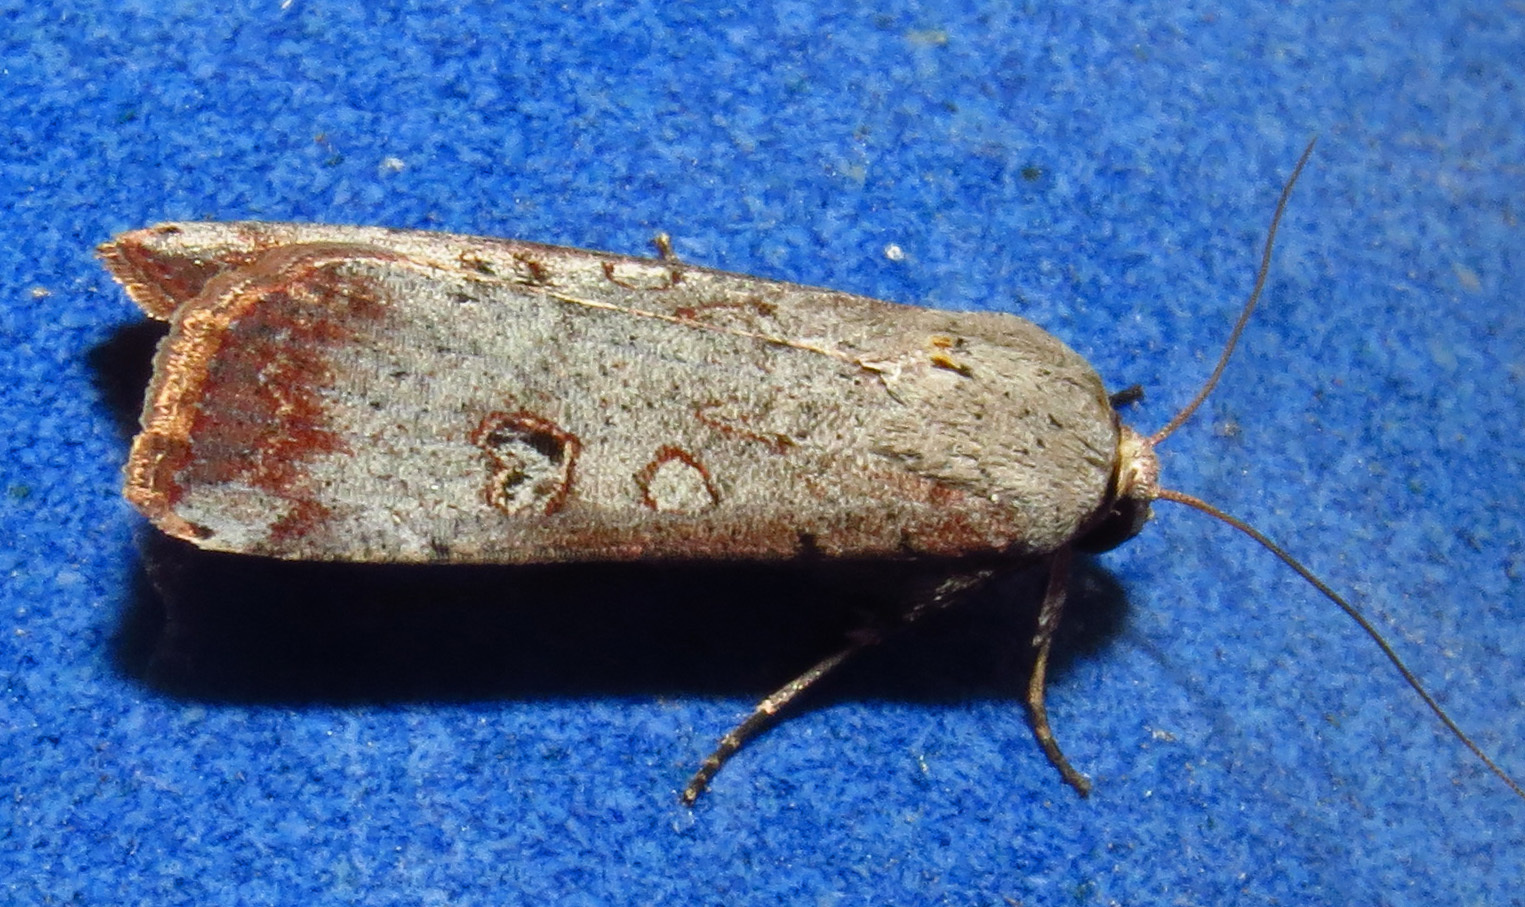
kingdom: Animalia
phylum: Arthropoda
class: Insecta
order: Lepidoptera
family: Noctuidae
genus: Anicla
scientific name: Anicla infecta
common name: Green cutworm
